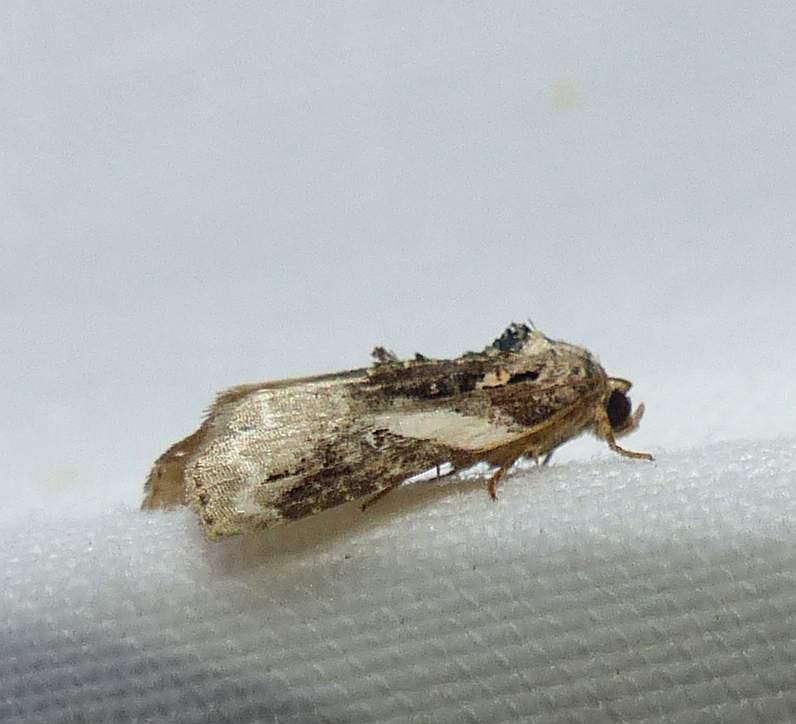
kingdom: Animalia
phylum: Arthropoda
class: Insecta
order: Lepidoptera
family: Noctuidae
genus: Pseudeustrotia
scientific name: Pseudeustrotia carneola
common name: Pink-barred lithacodia moth
